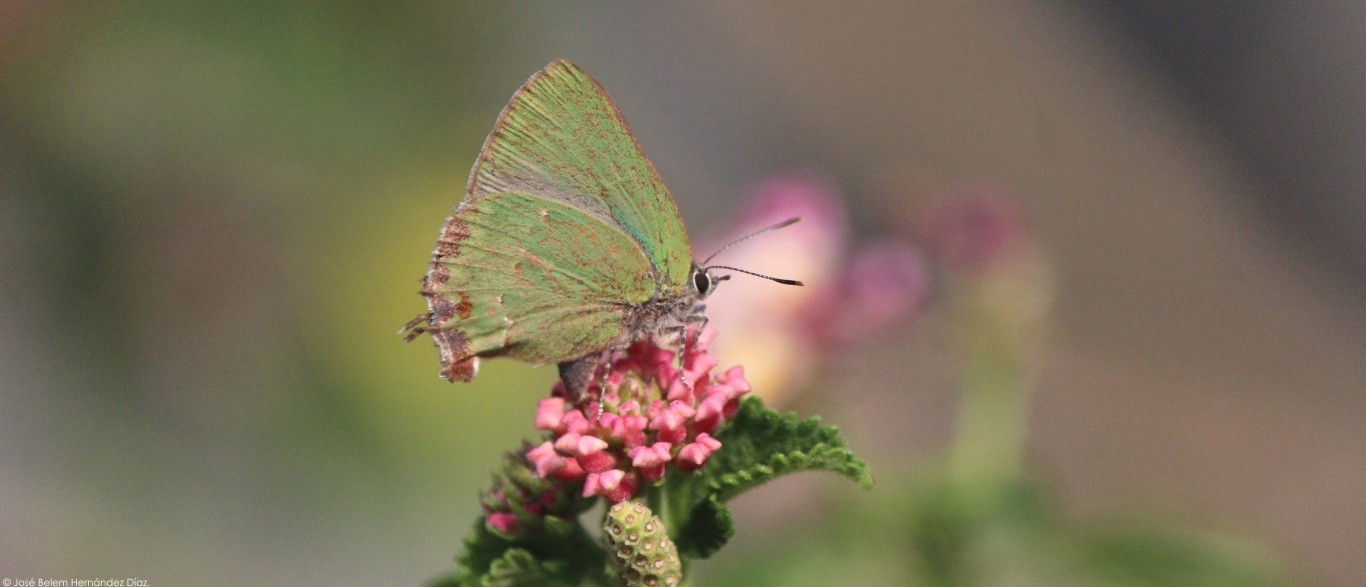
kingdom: Animalia
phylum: Arthropoda
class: Insecta
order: Lepidoptera
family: Lycaenidae
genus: Cyanophrys
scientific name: Cyanophrys longula
